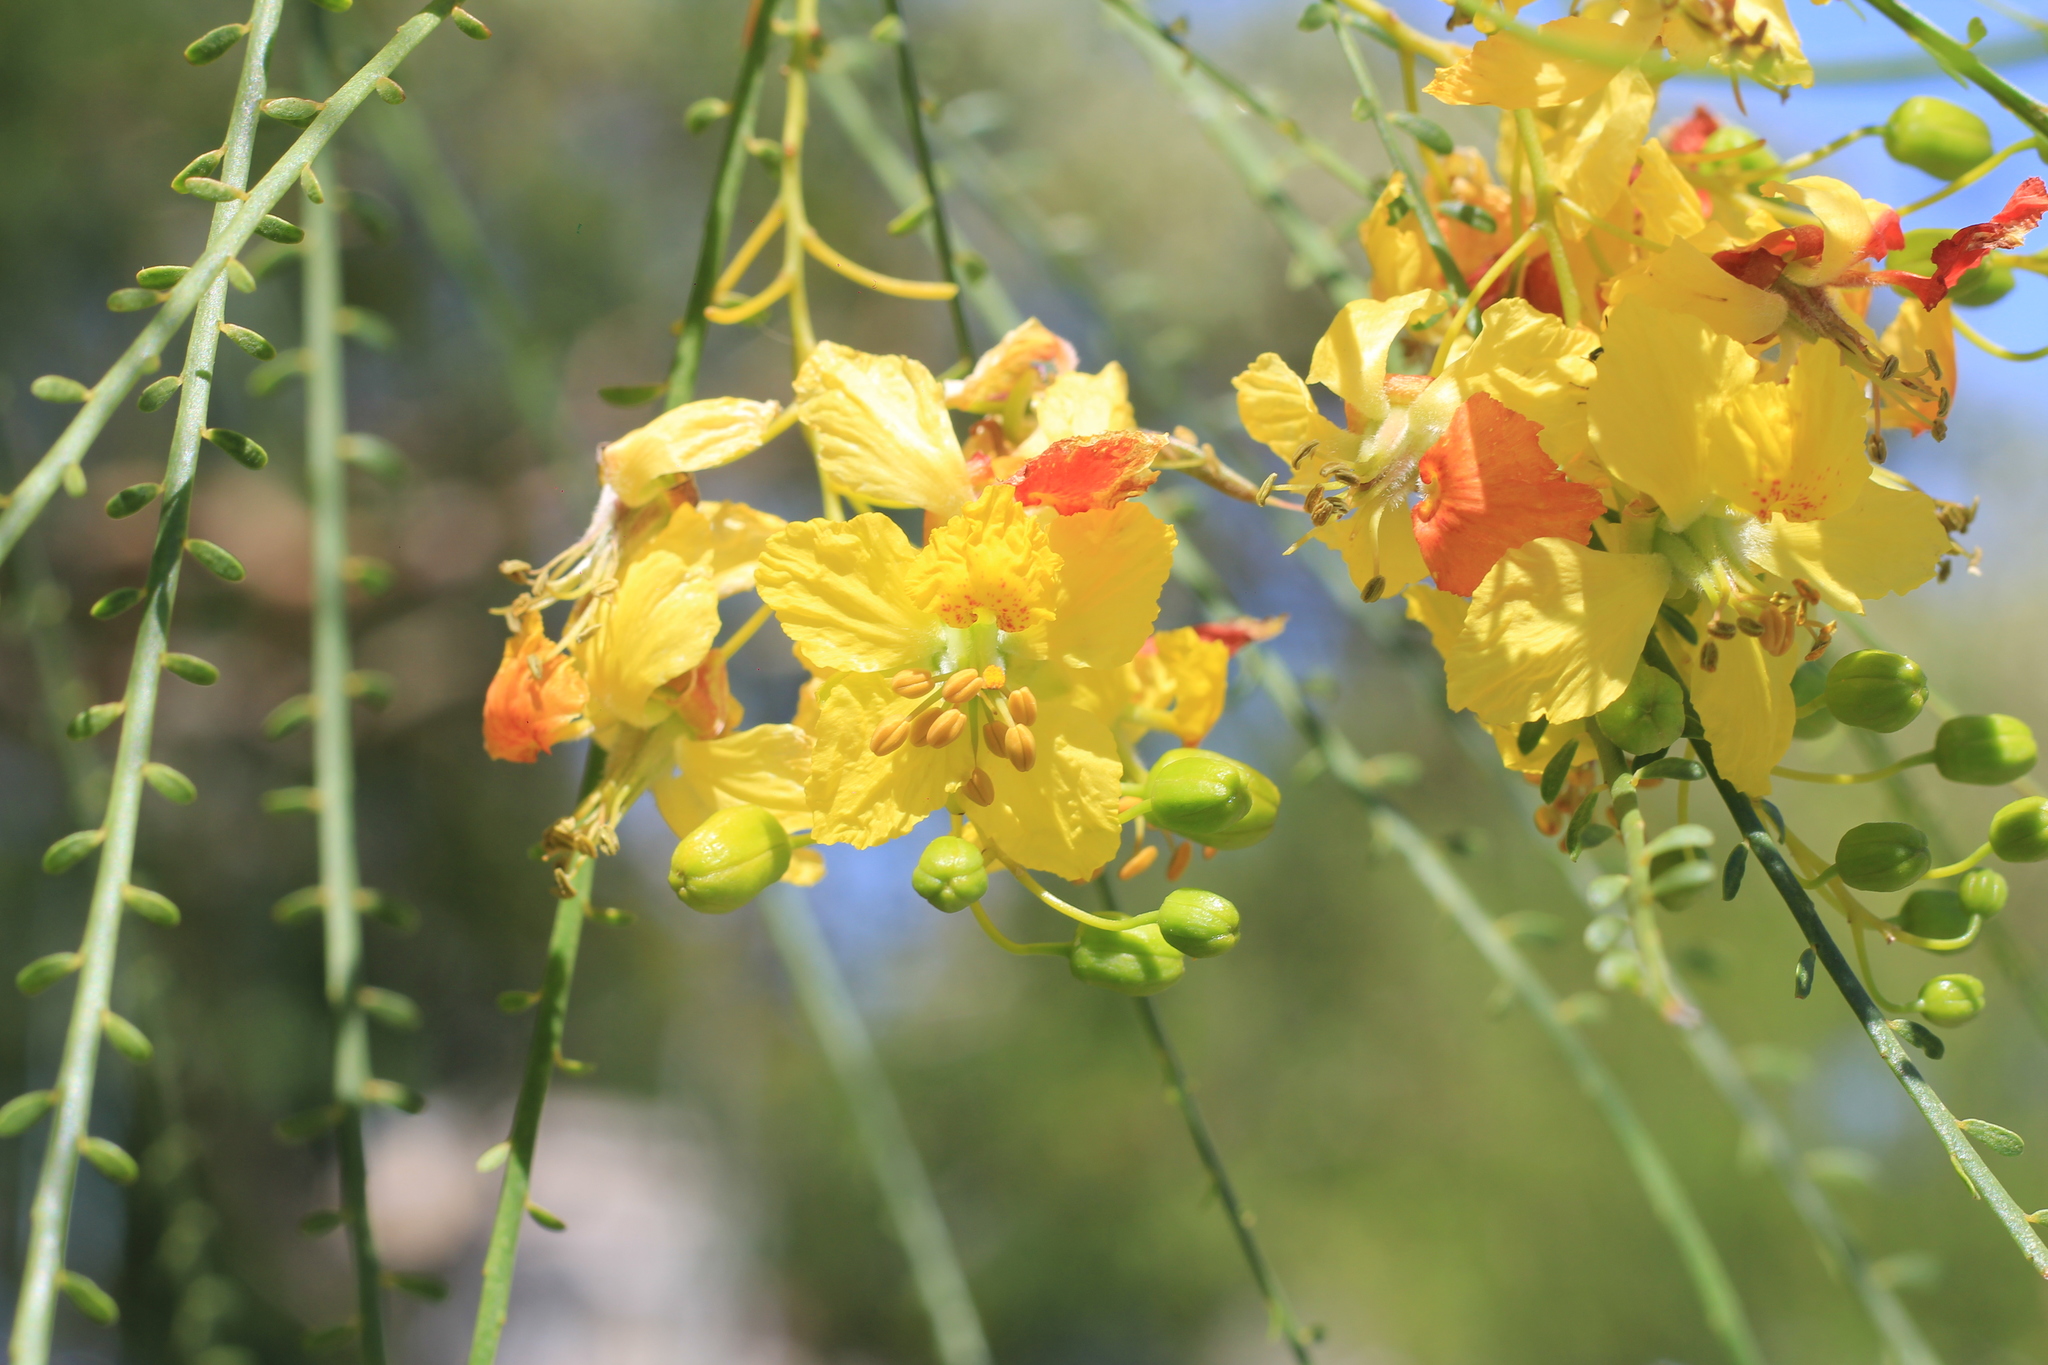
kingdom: Plantae
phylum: Tracheophyta
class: Magnoliopsida
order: Fabales
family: Fabaceae
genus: Parkinsonia
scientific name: Parkinsonia aculeata
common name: Jerusalem thorn
